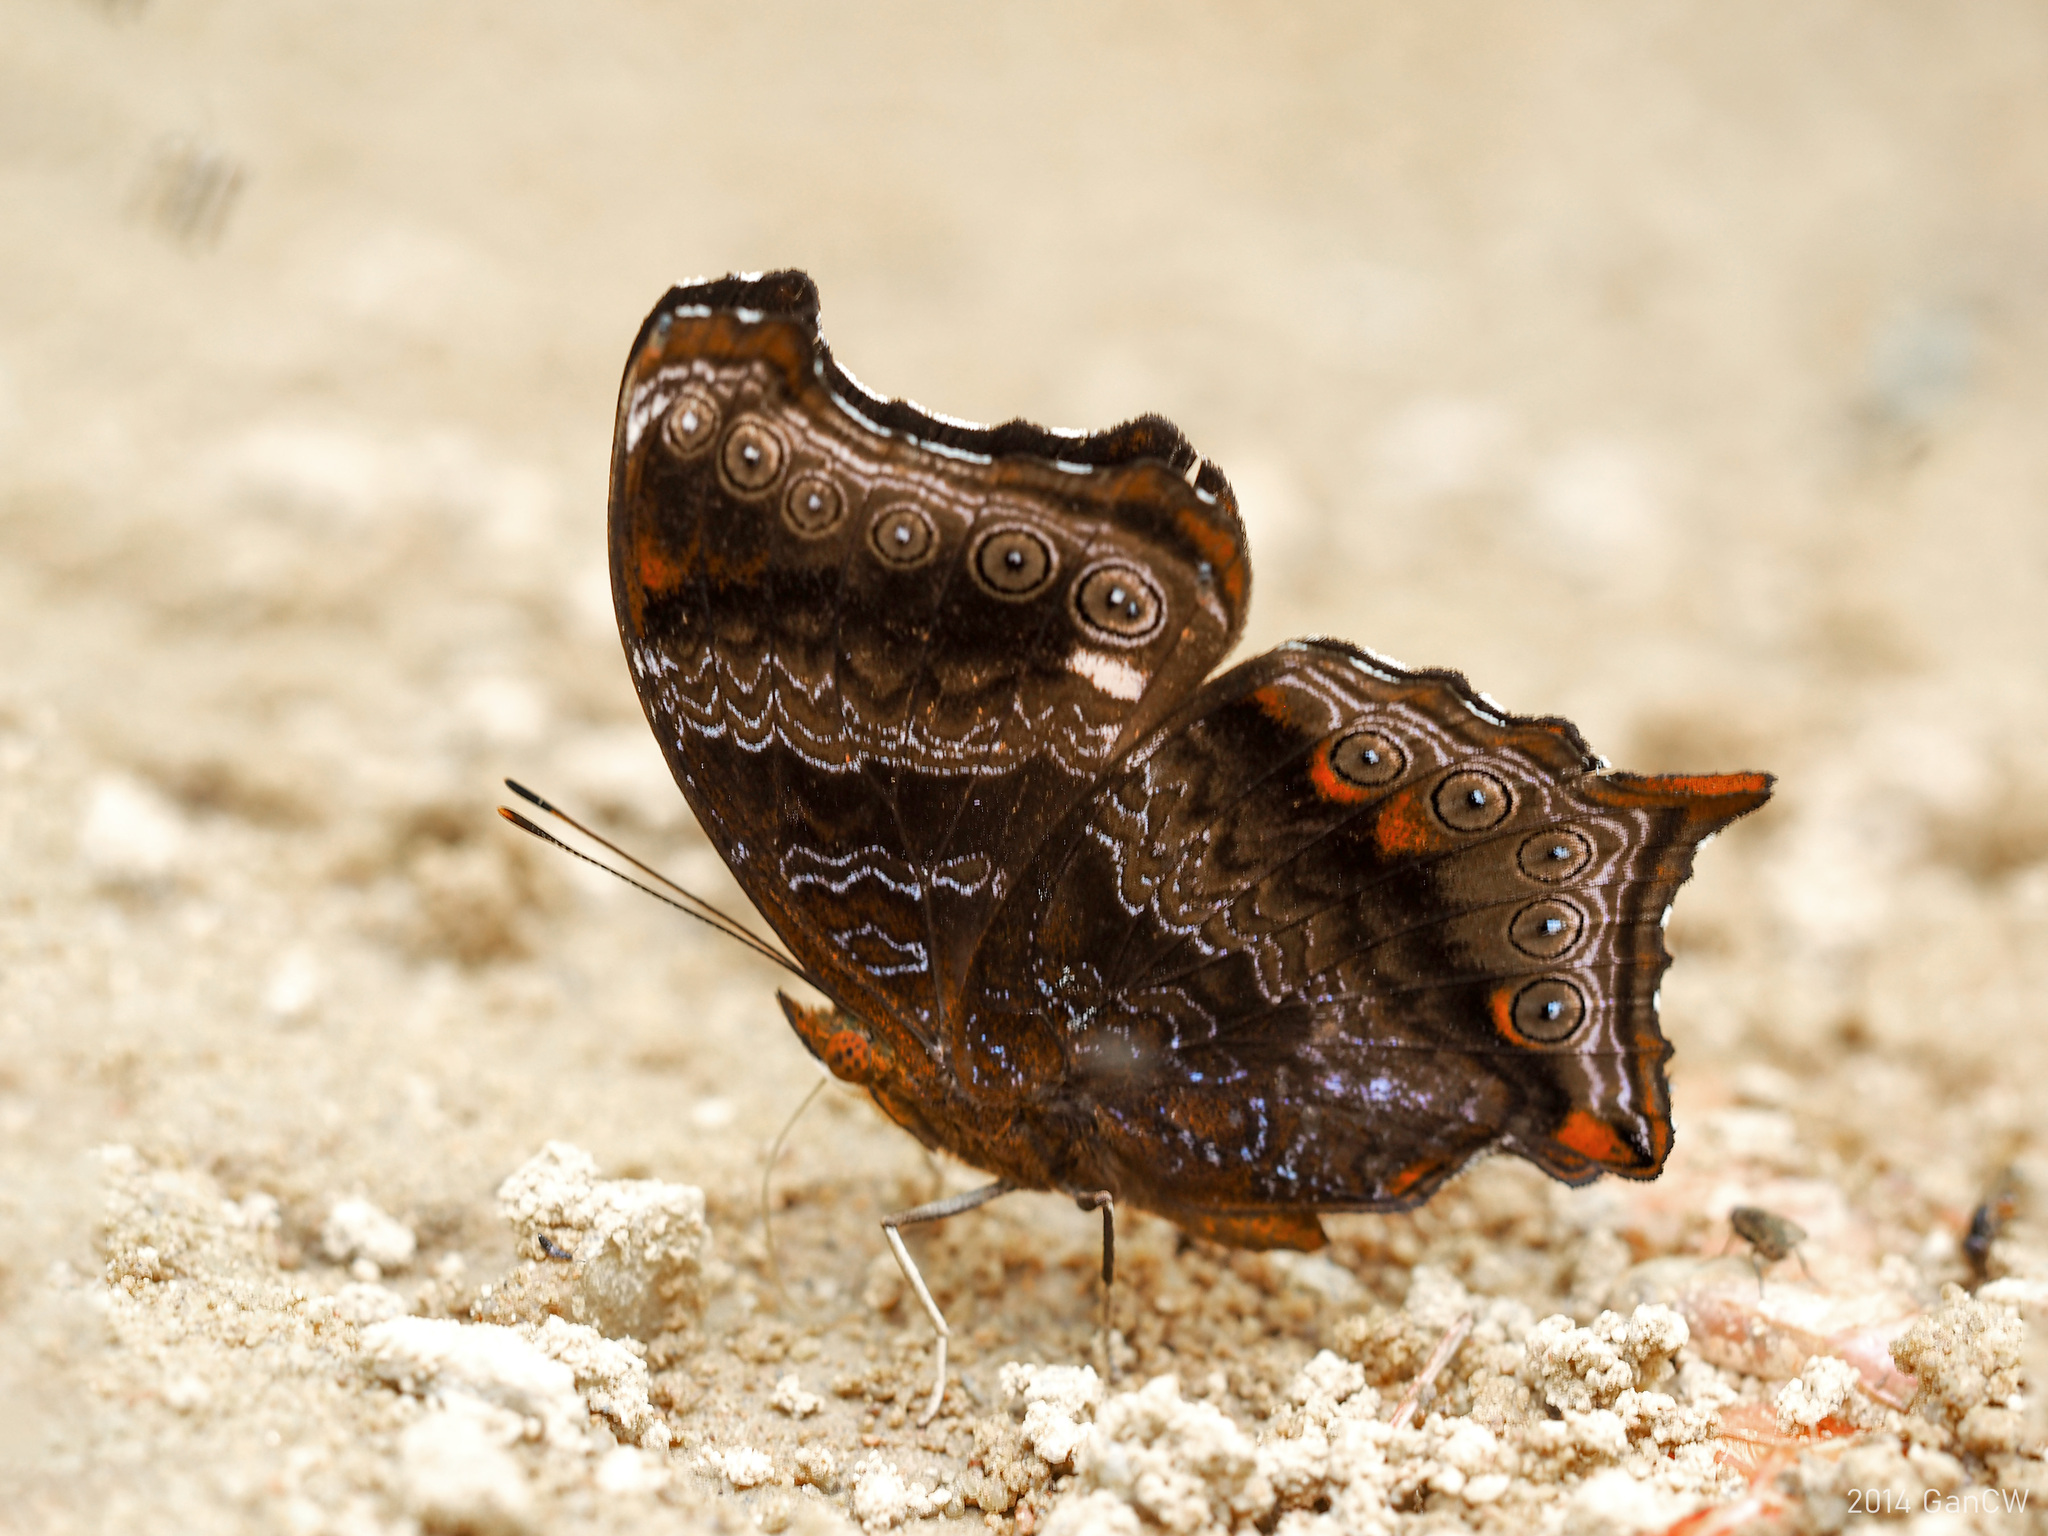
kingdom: Animalia
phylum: Arthropoda
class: Insecta
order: Lepidoptera
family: Nymphalidae
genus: Rhinopalpa
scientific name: Rhinopalpa polynice
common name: Wizard
